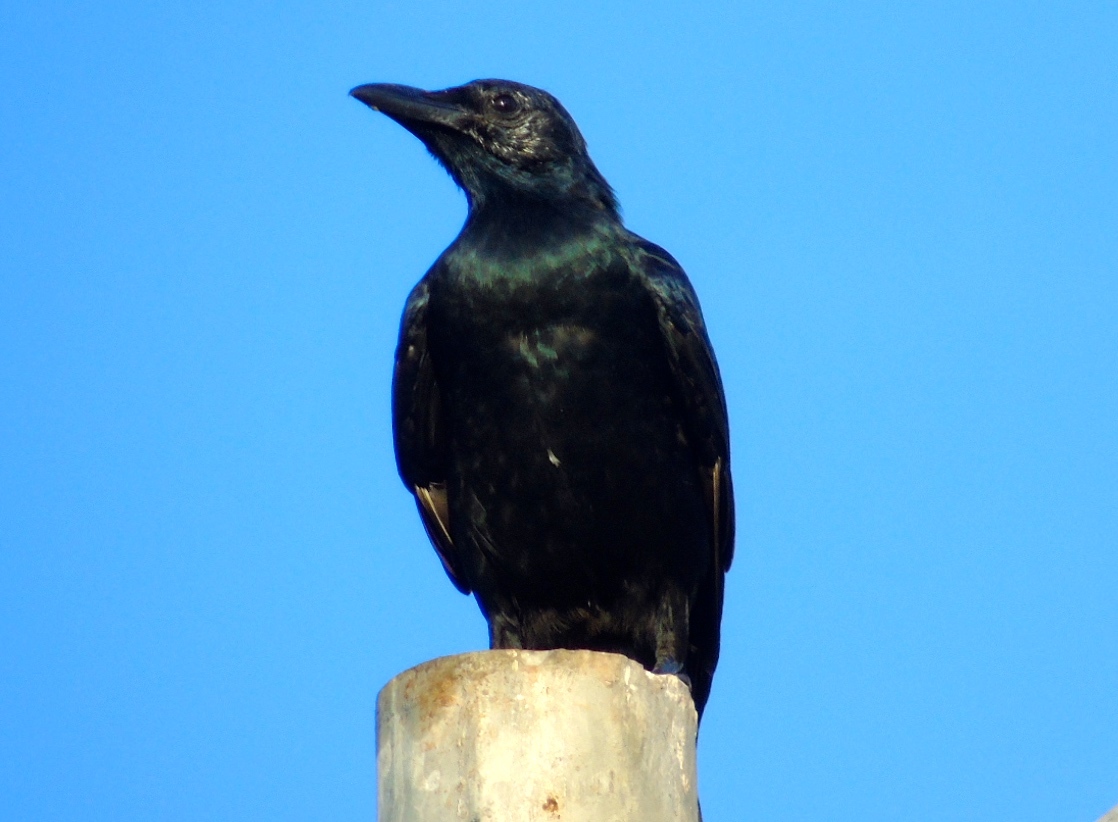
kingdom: Animalia
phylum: Chordata
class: Aves
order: Passeriformes
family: Corvidae
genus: Corvus
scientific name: Corvus sinaloae
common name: Sinaloa crow
